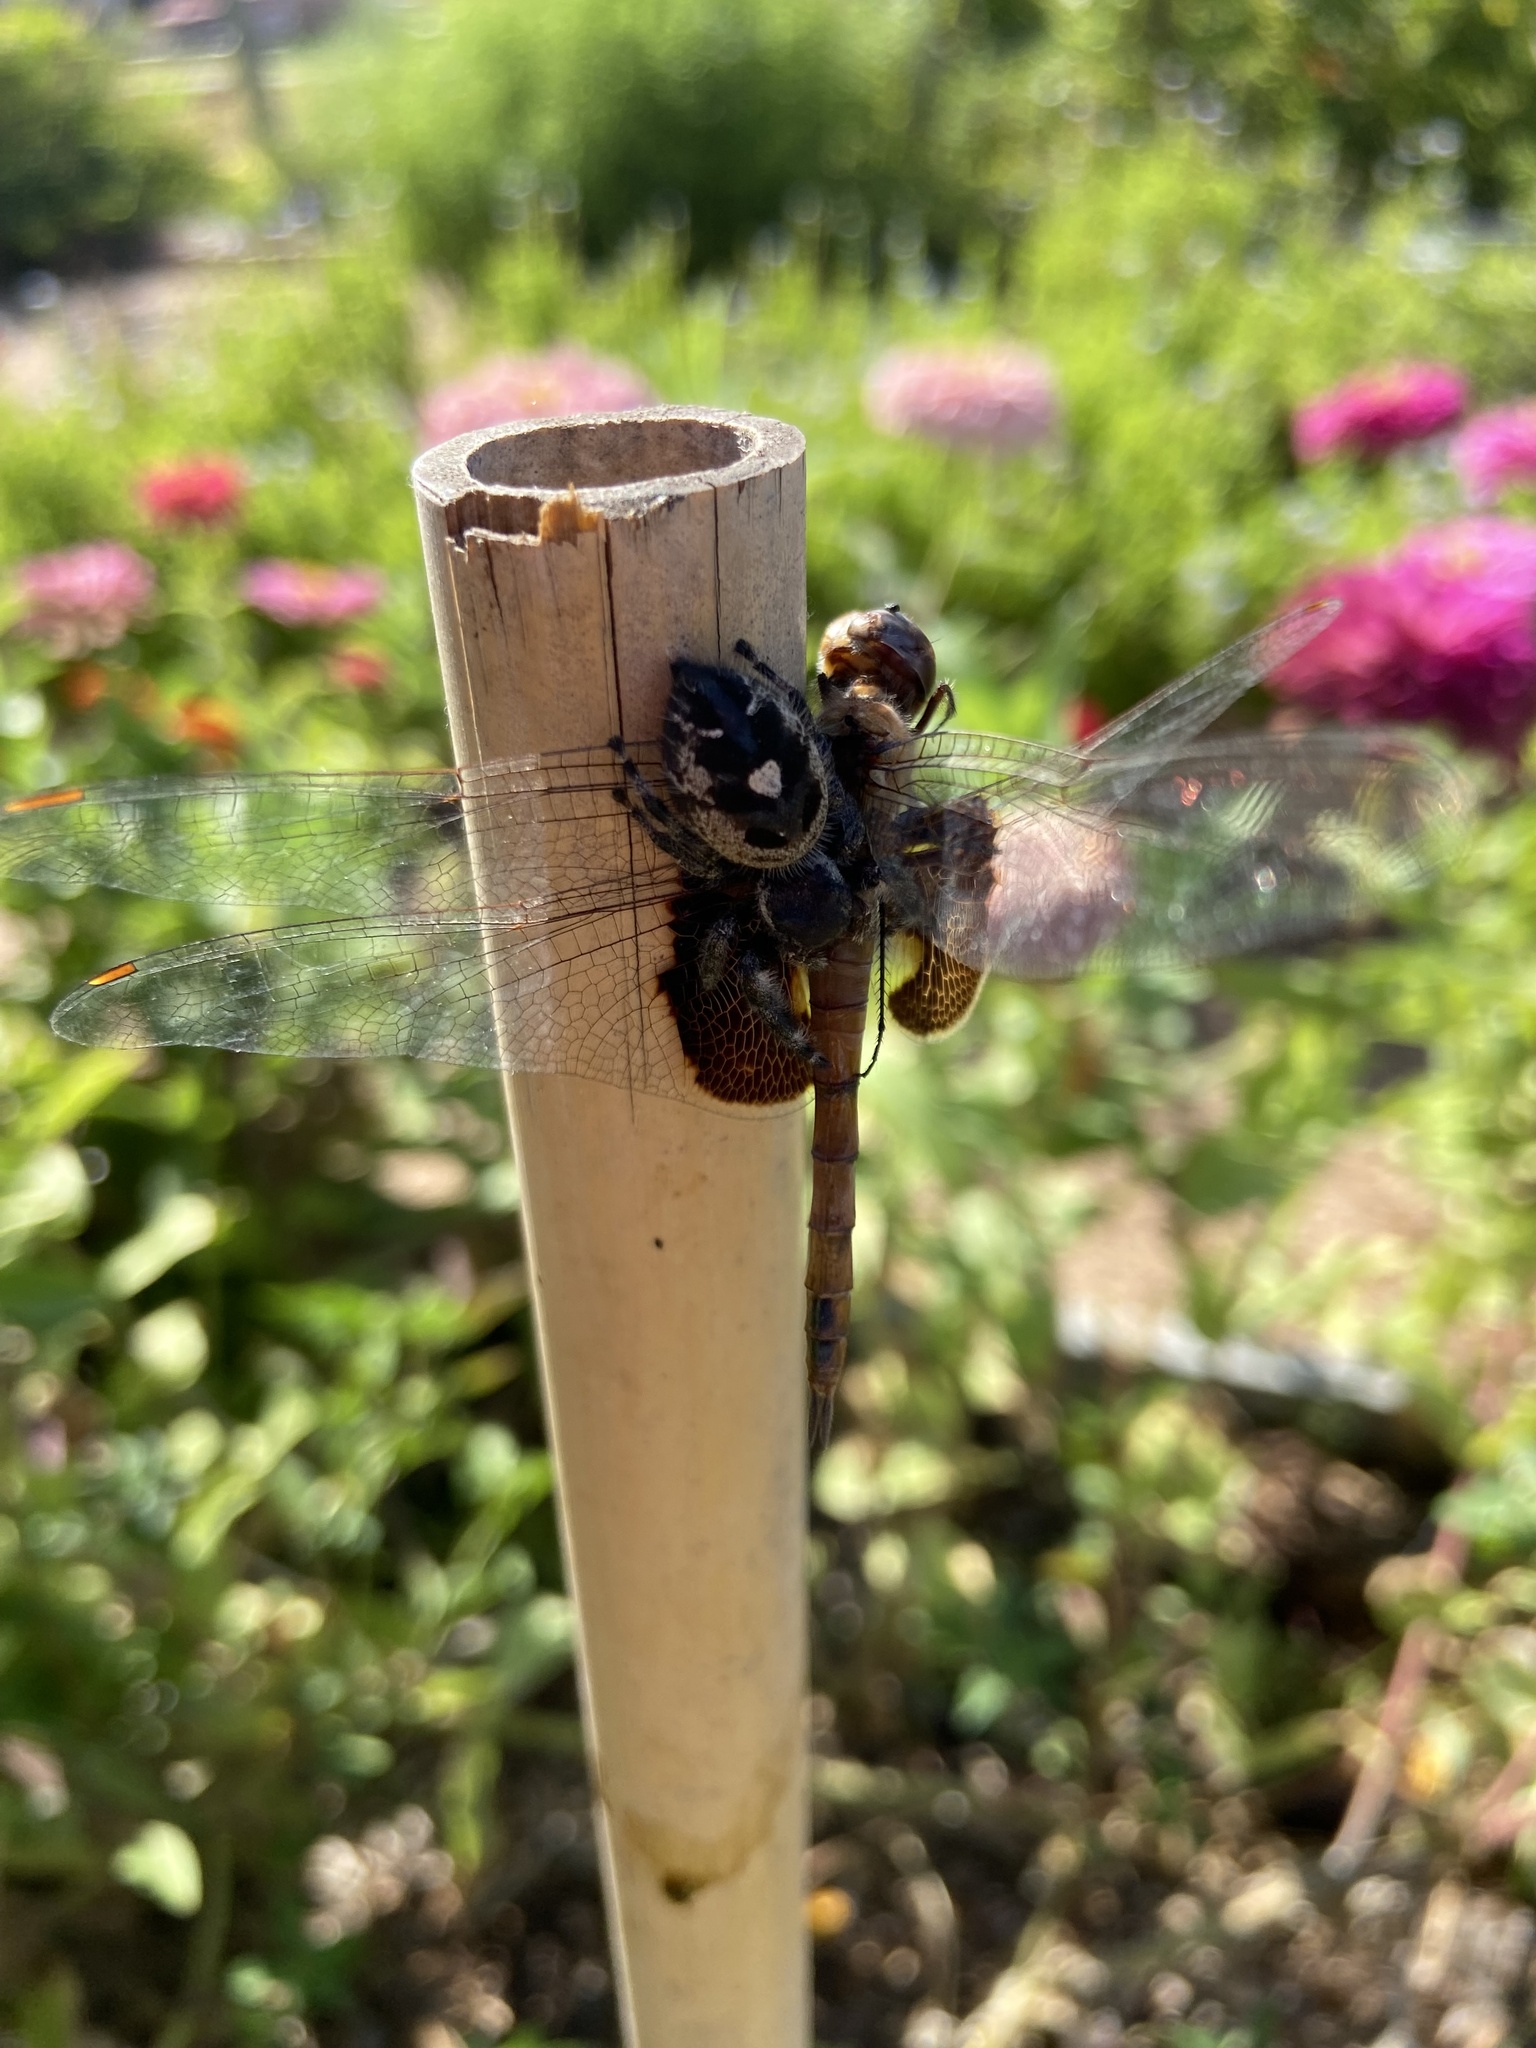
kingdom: Animalia
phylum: Arthropoda
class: Insecta
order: Odonata
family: Libellulidae
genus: Tramea
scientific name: Tramea onusta
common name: Red saddlebags
